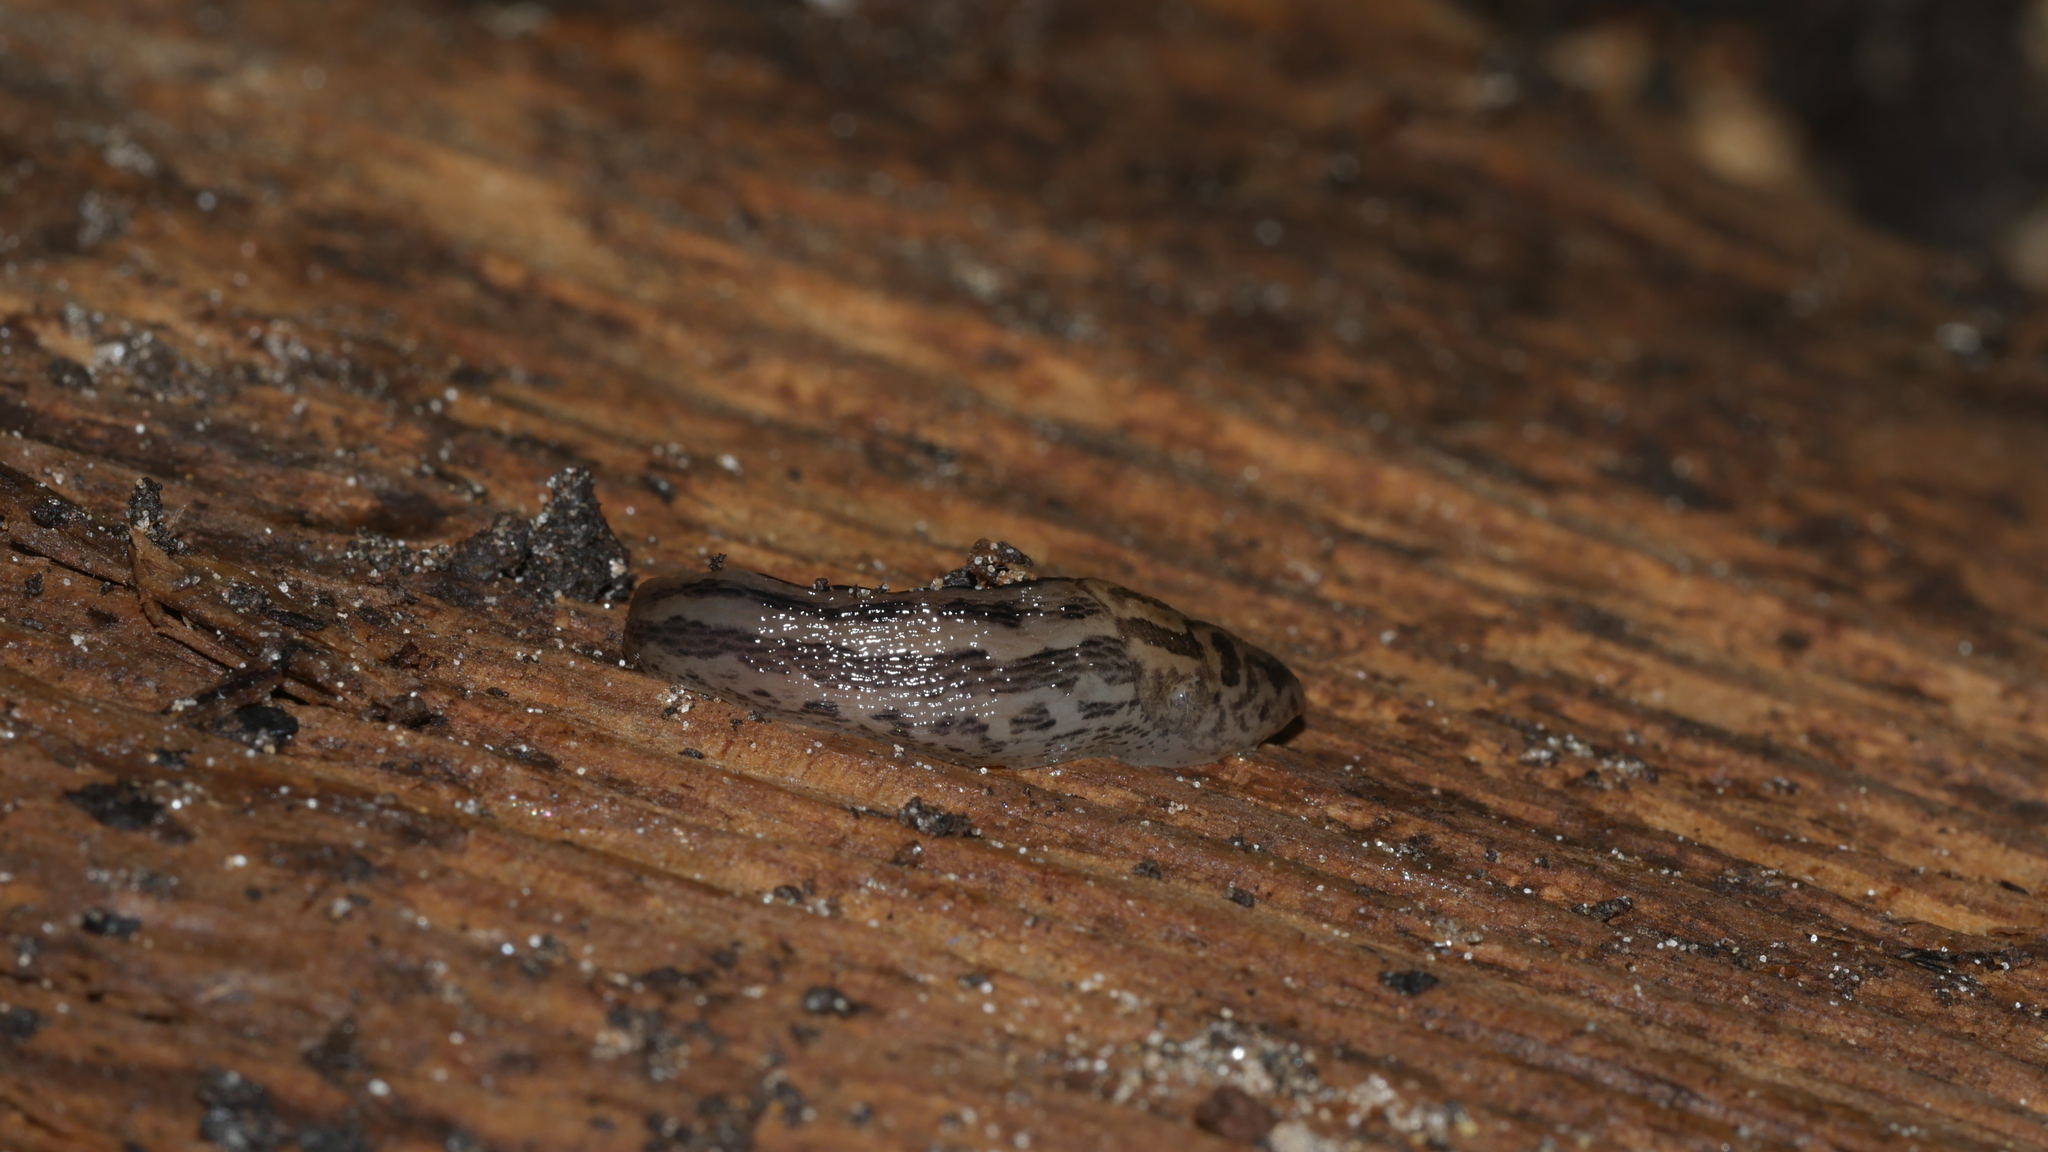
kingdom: Animalia
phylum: Mollusca
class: Gastropoda
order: Stylommatophora
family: Limacidae
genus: Limax
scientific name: Limax maximus
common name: Great grey slug
